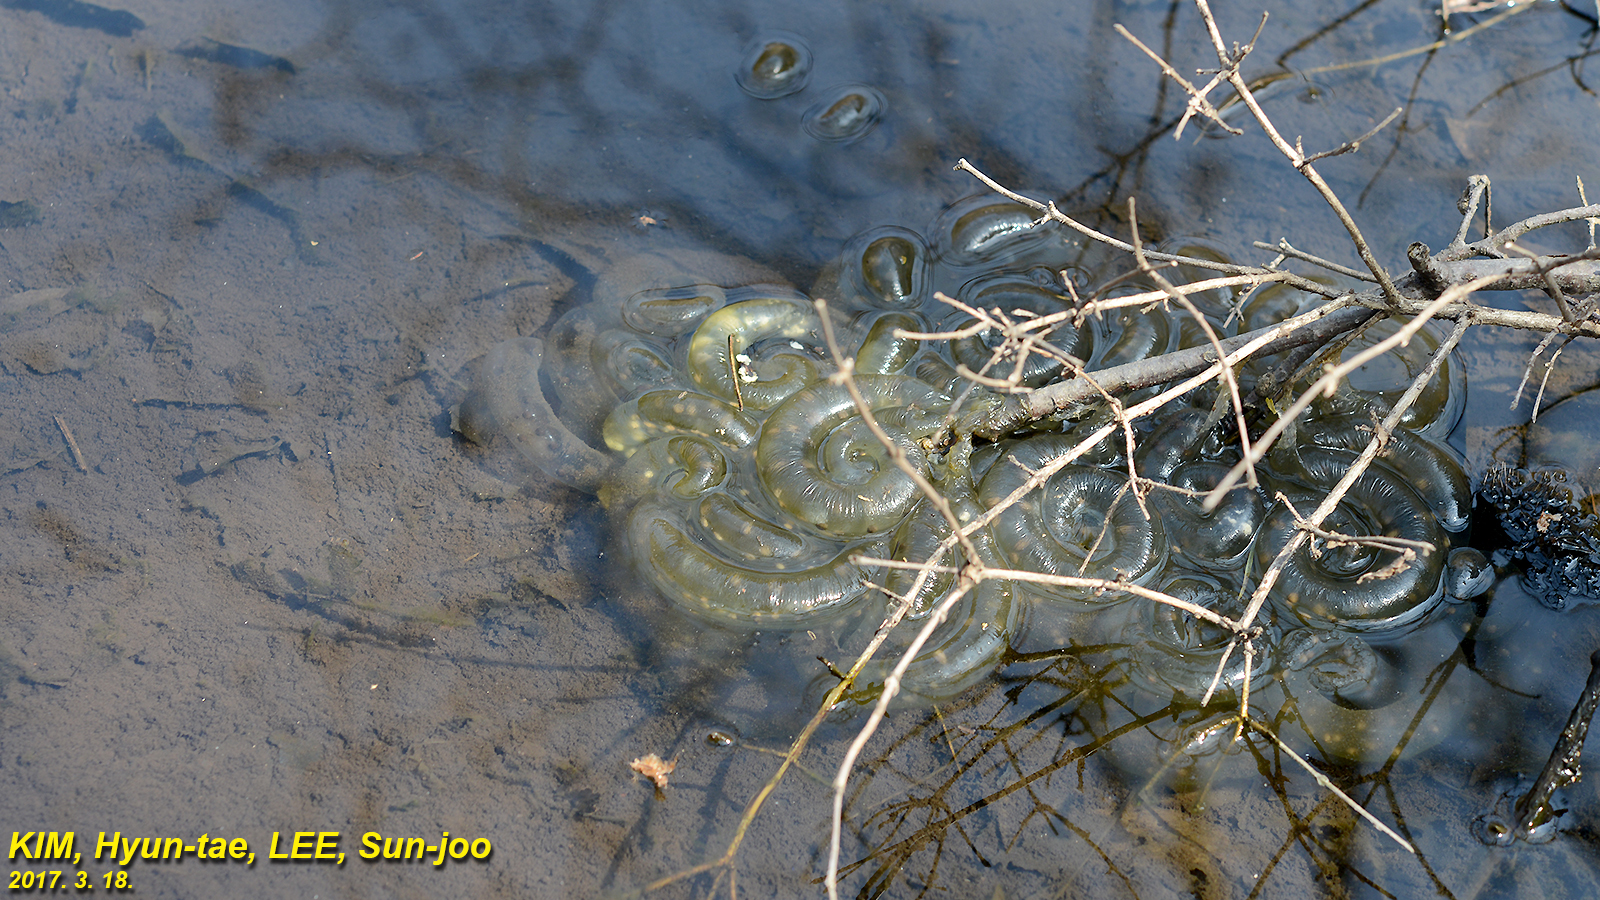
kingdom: Animalia
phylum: Chordata
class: Amphibia
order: Caudata
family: Hynobiidae
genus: Hynobius
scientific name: Hynobius leechii
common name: Gensan salamander
